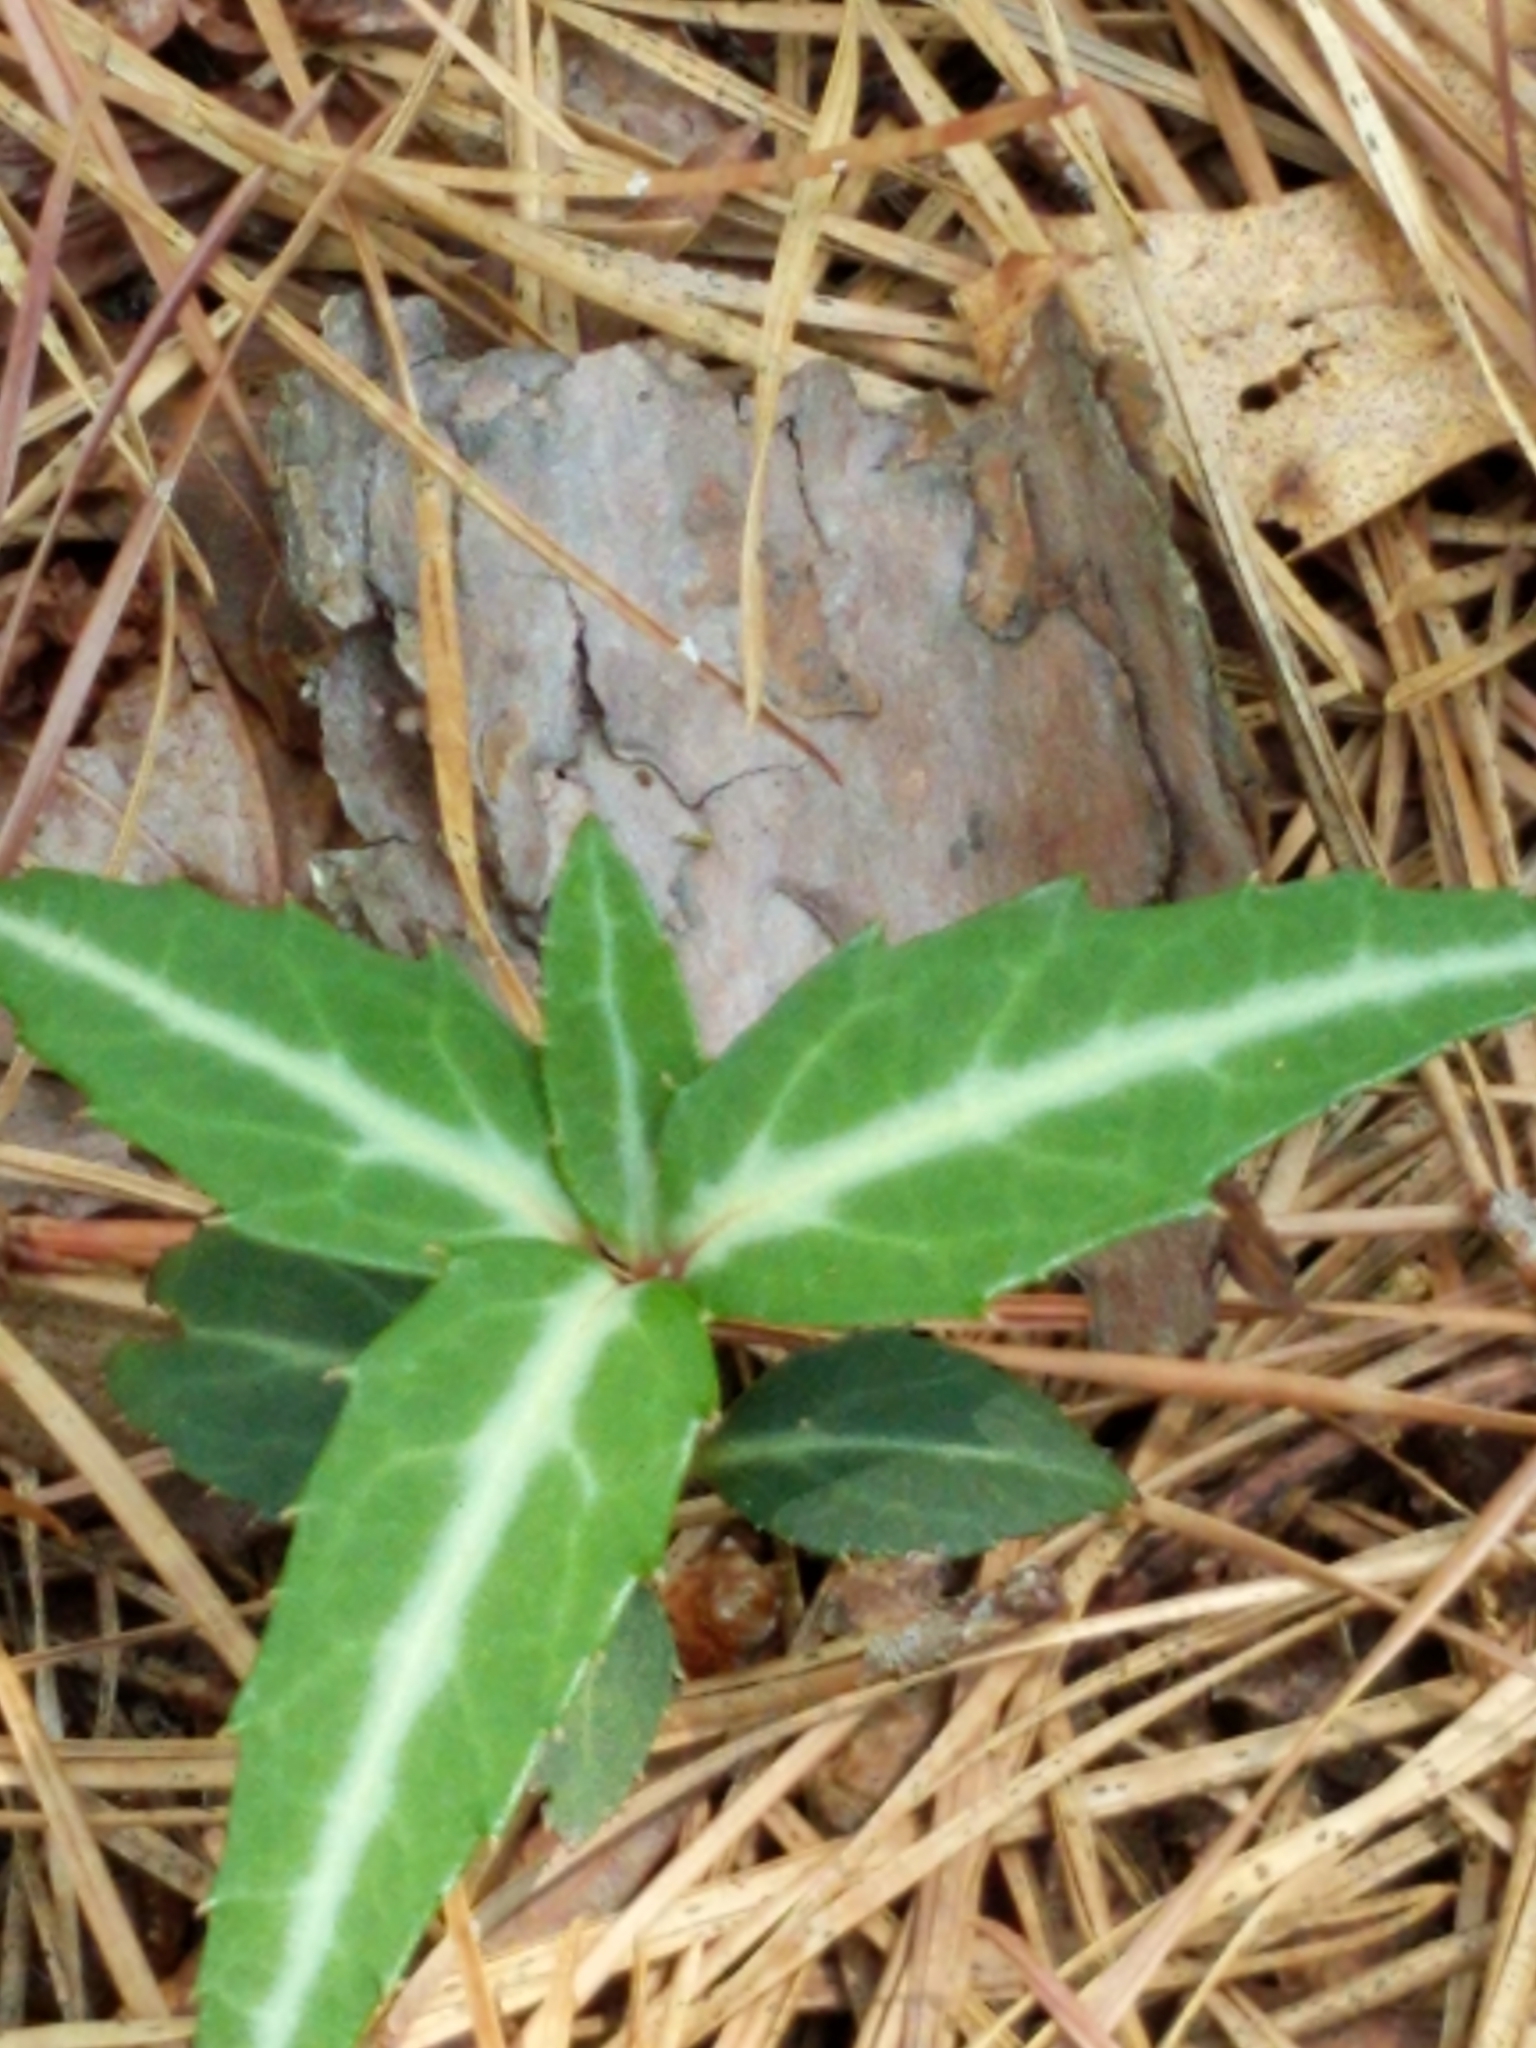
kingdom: Plantae
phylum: Tracheophyta
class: Magnoliopsida
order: Ericales
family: Ericaceae
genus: Chimaphila
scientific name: Chimaphila maculata
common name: Spotted pipsissewa
